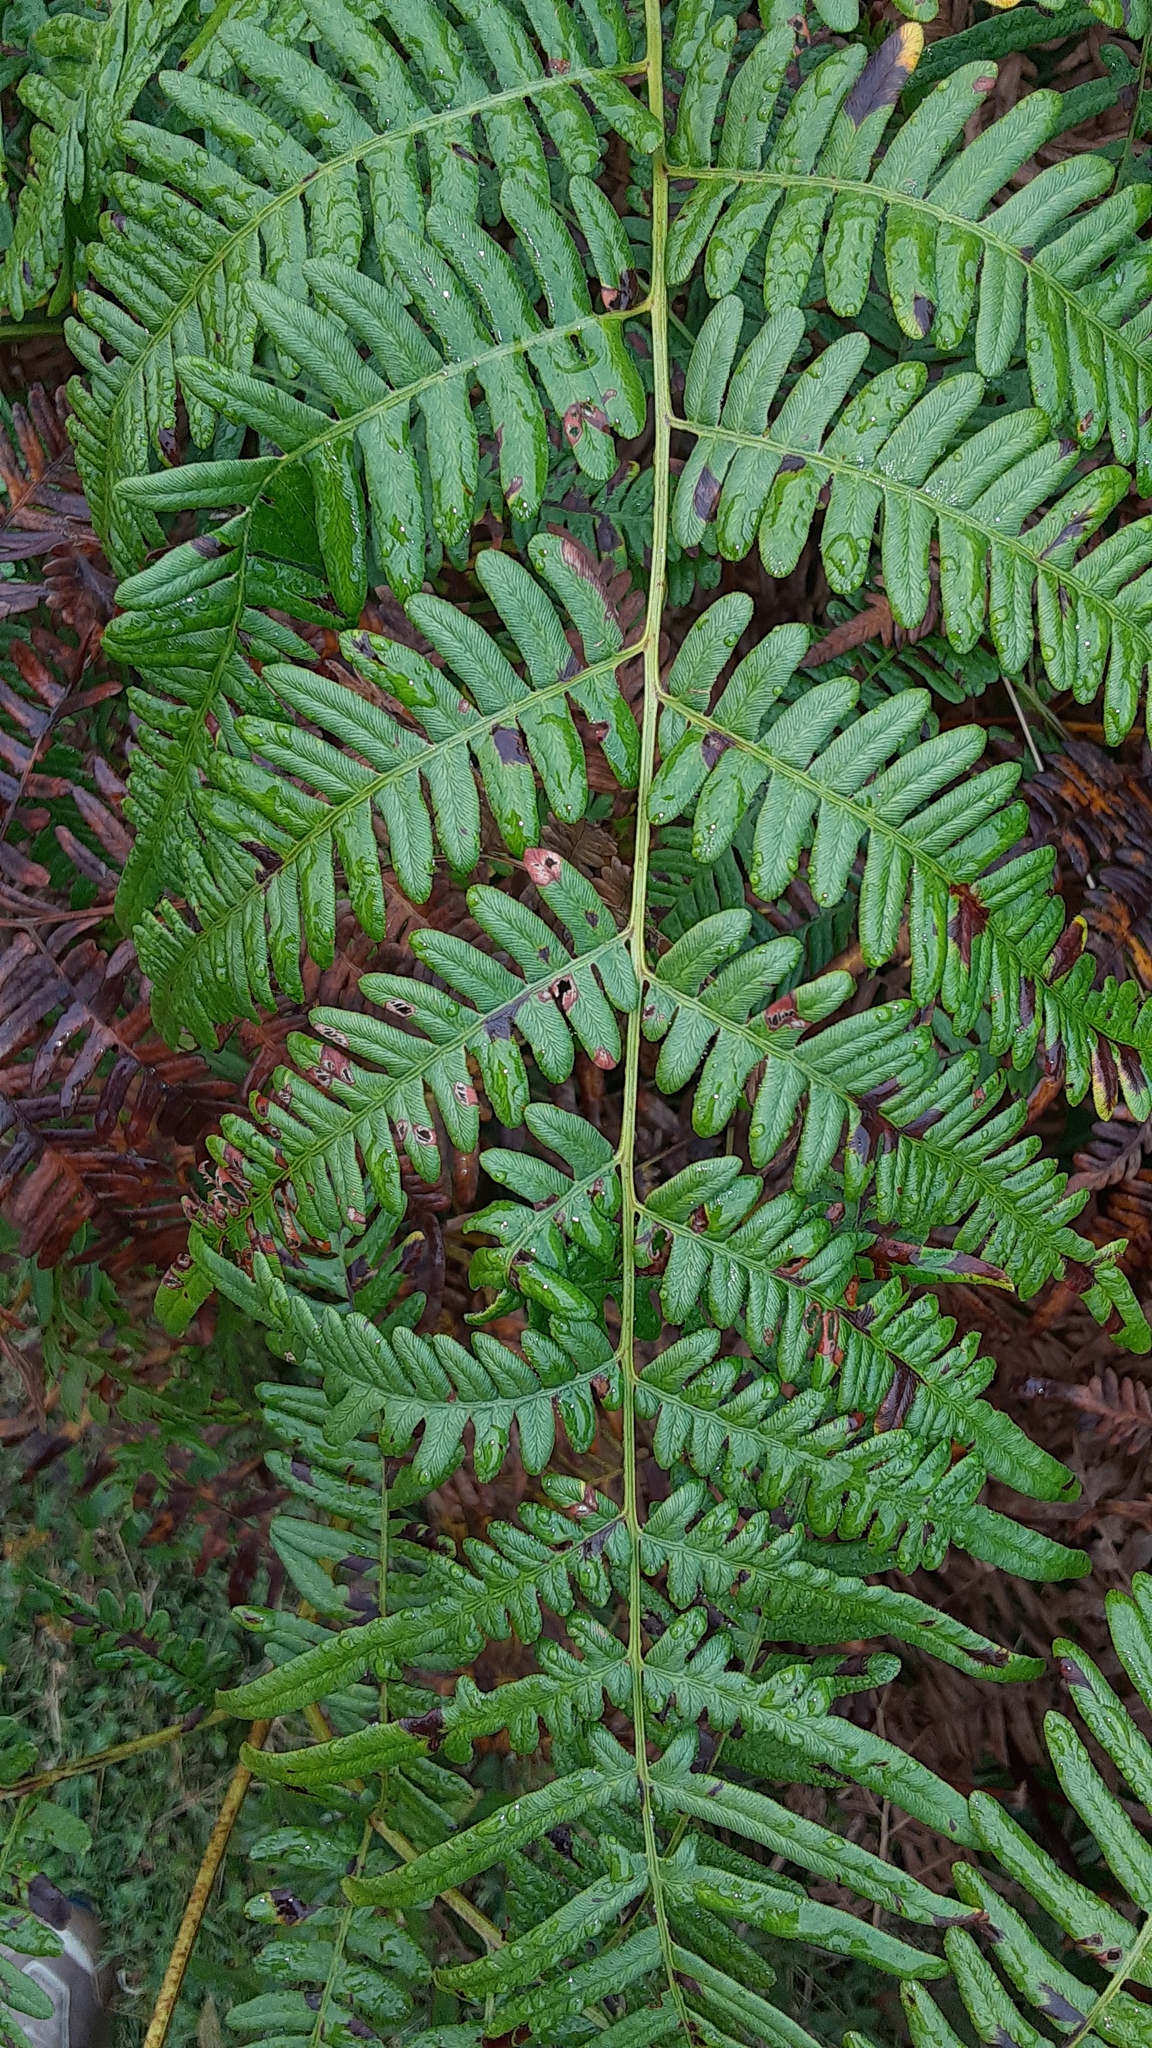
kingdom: Plantae
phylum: Tracheophyta
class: Polypodiopsida
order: Polypodiales
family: Dennstaedtiaceae
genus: Pteridium
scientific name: Pteridium aquilinum
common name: Bracken
